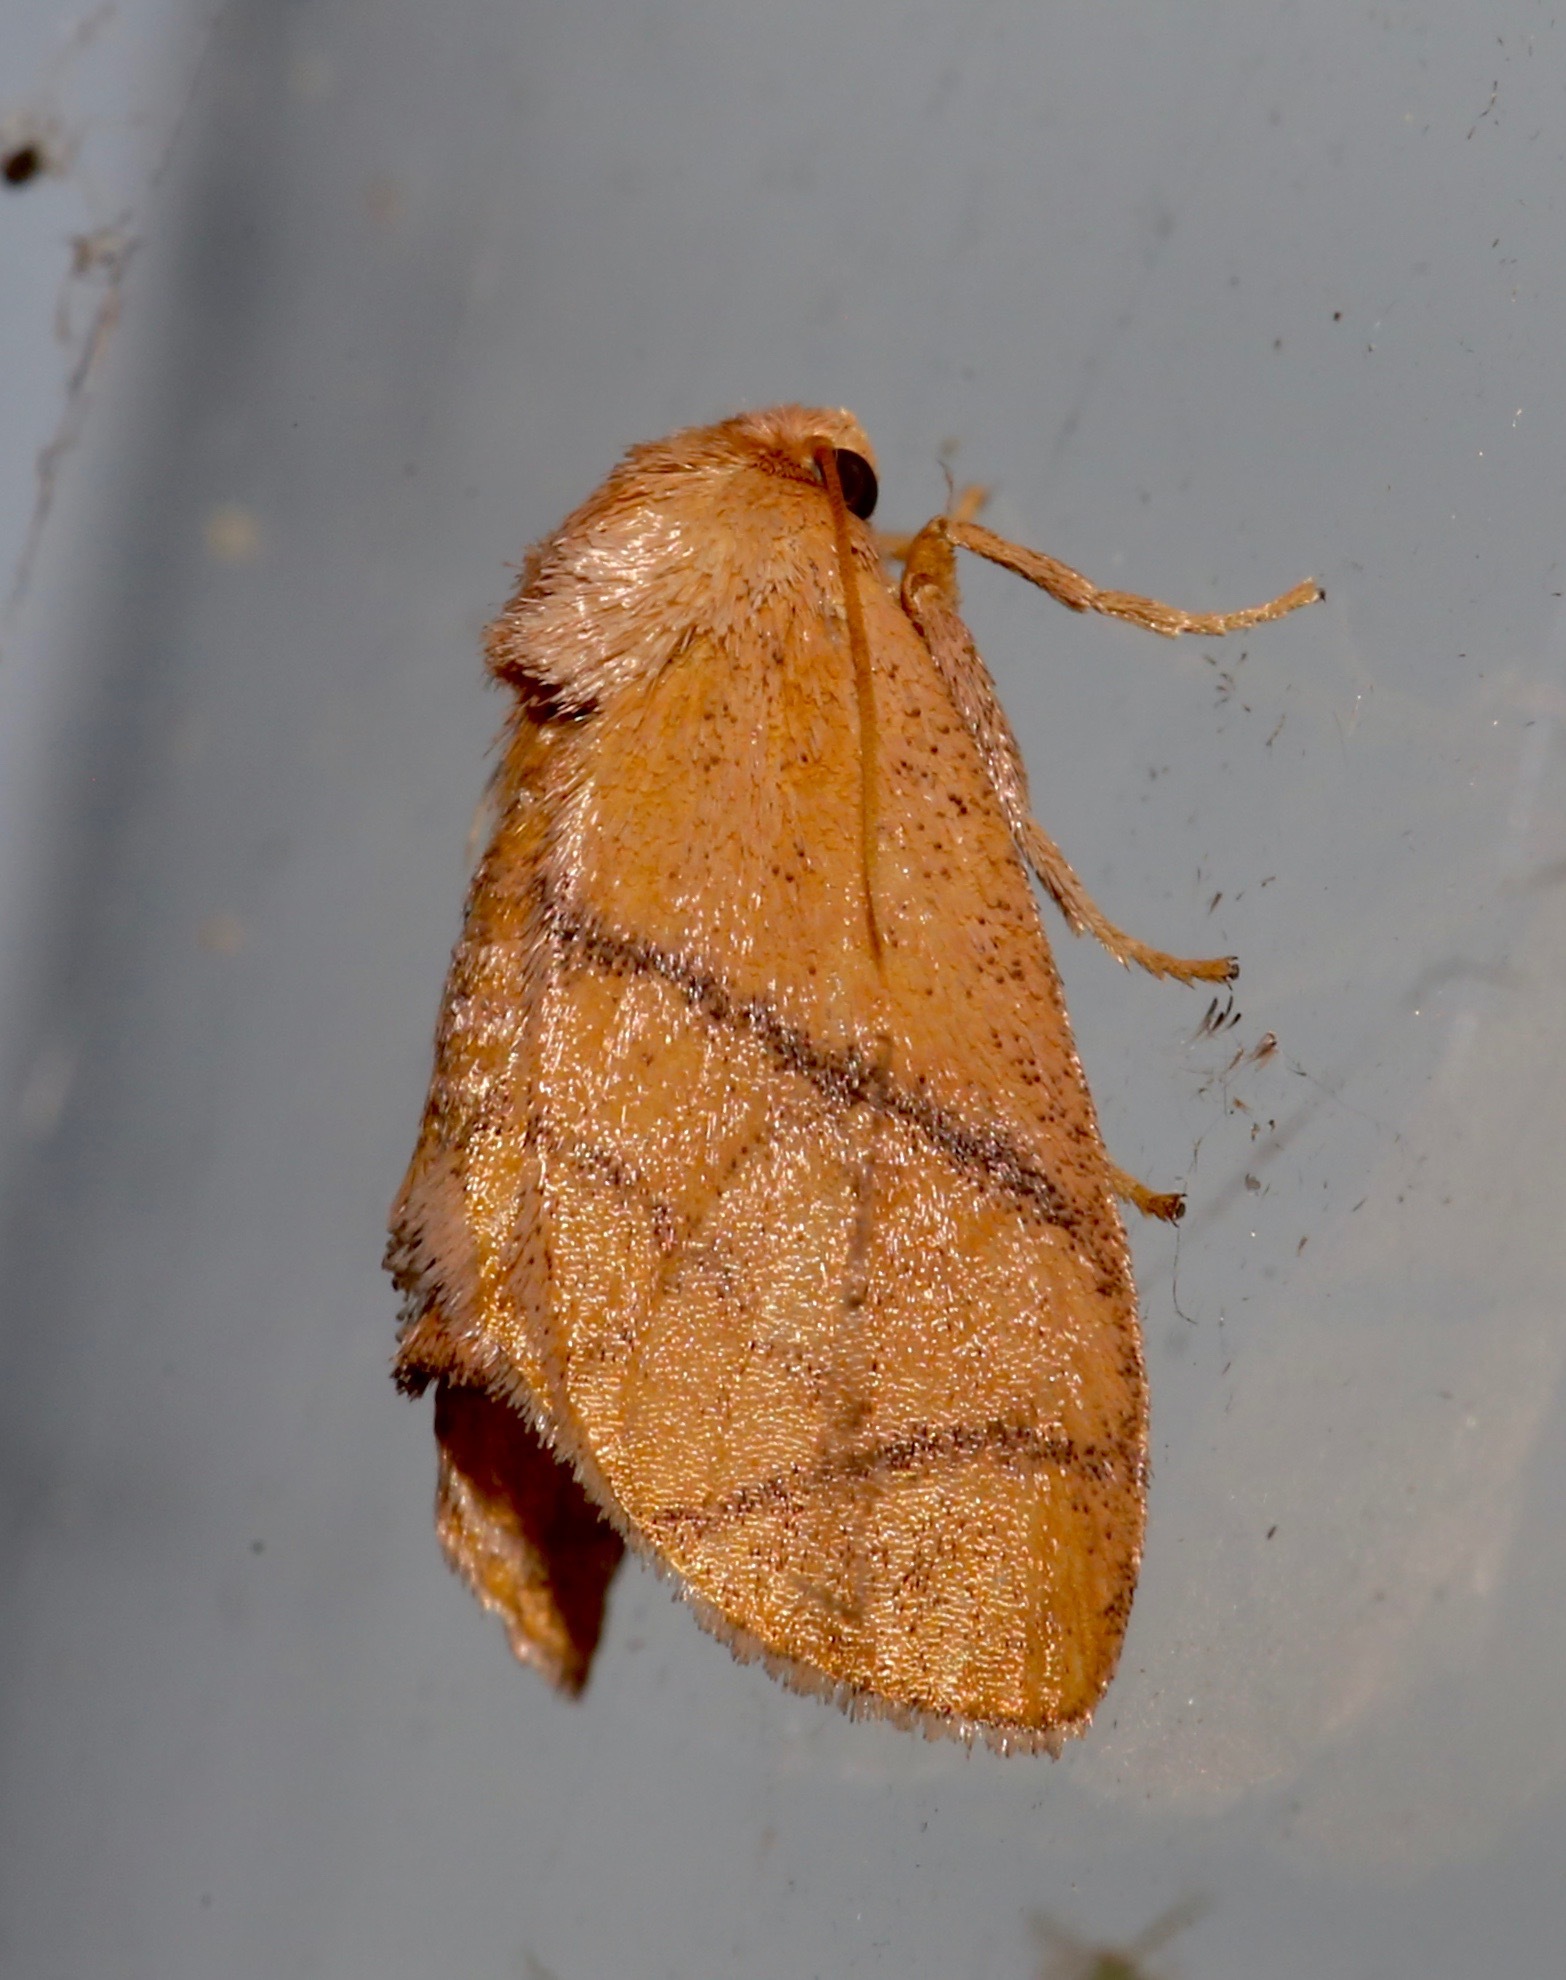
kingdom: Animalia
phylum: Arthropoda
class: Insecta
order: Lepidoptera
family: Limacodidae
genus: Apoda
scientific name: Apoda y-inversa
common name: Yellow-collared slug moth
